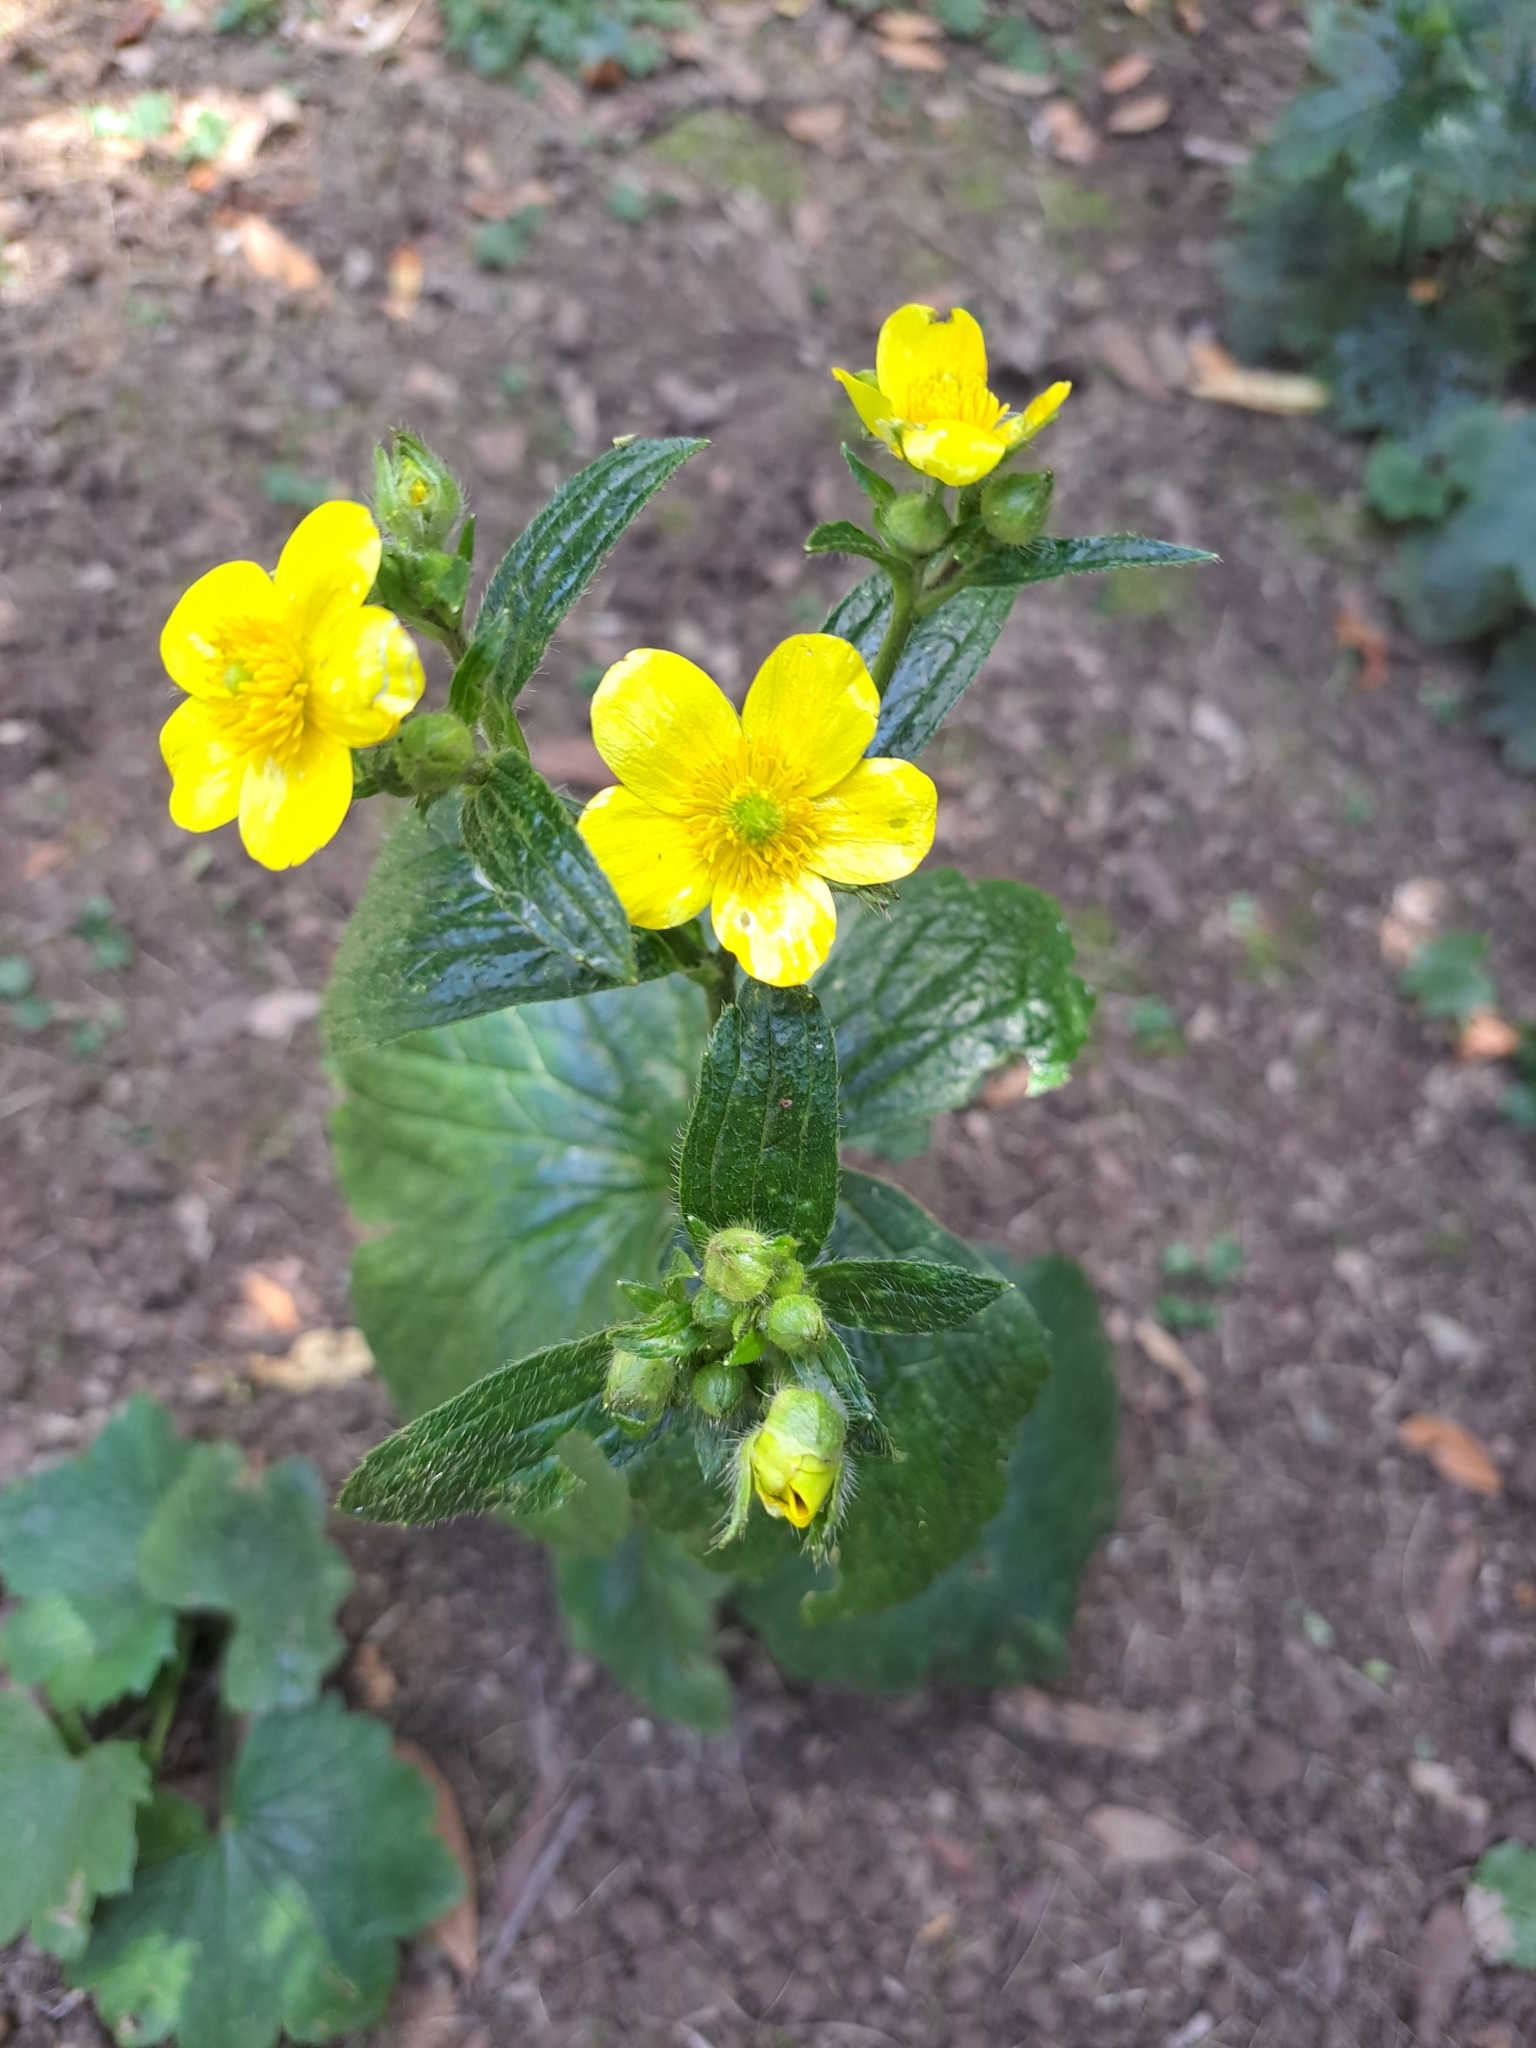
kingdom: Plantae
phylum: Tracheophyta
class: Magnoliopsida
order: Ranunculales
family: Ranunculaceae
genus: Ranunculus
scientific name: Ranunculus cortusifolius
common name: Azores buttercup
